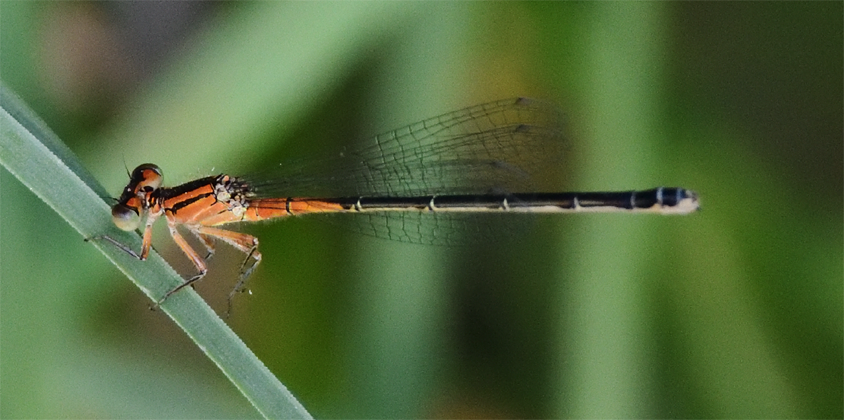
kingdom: Animalia
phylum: Arthropoda
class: Insecta
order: Odonata
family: Coenagrionidae
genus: Ischnura
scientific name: Ischnura verticalis
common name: Eastern forktail
